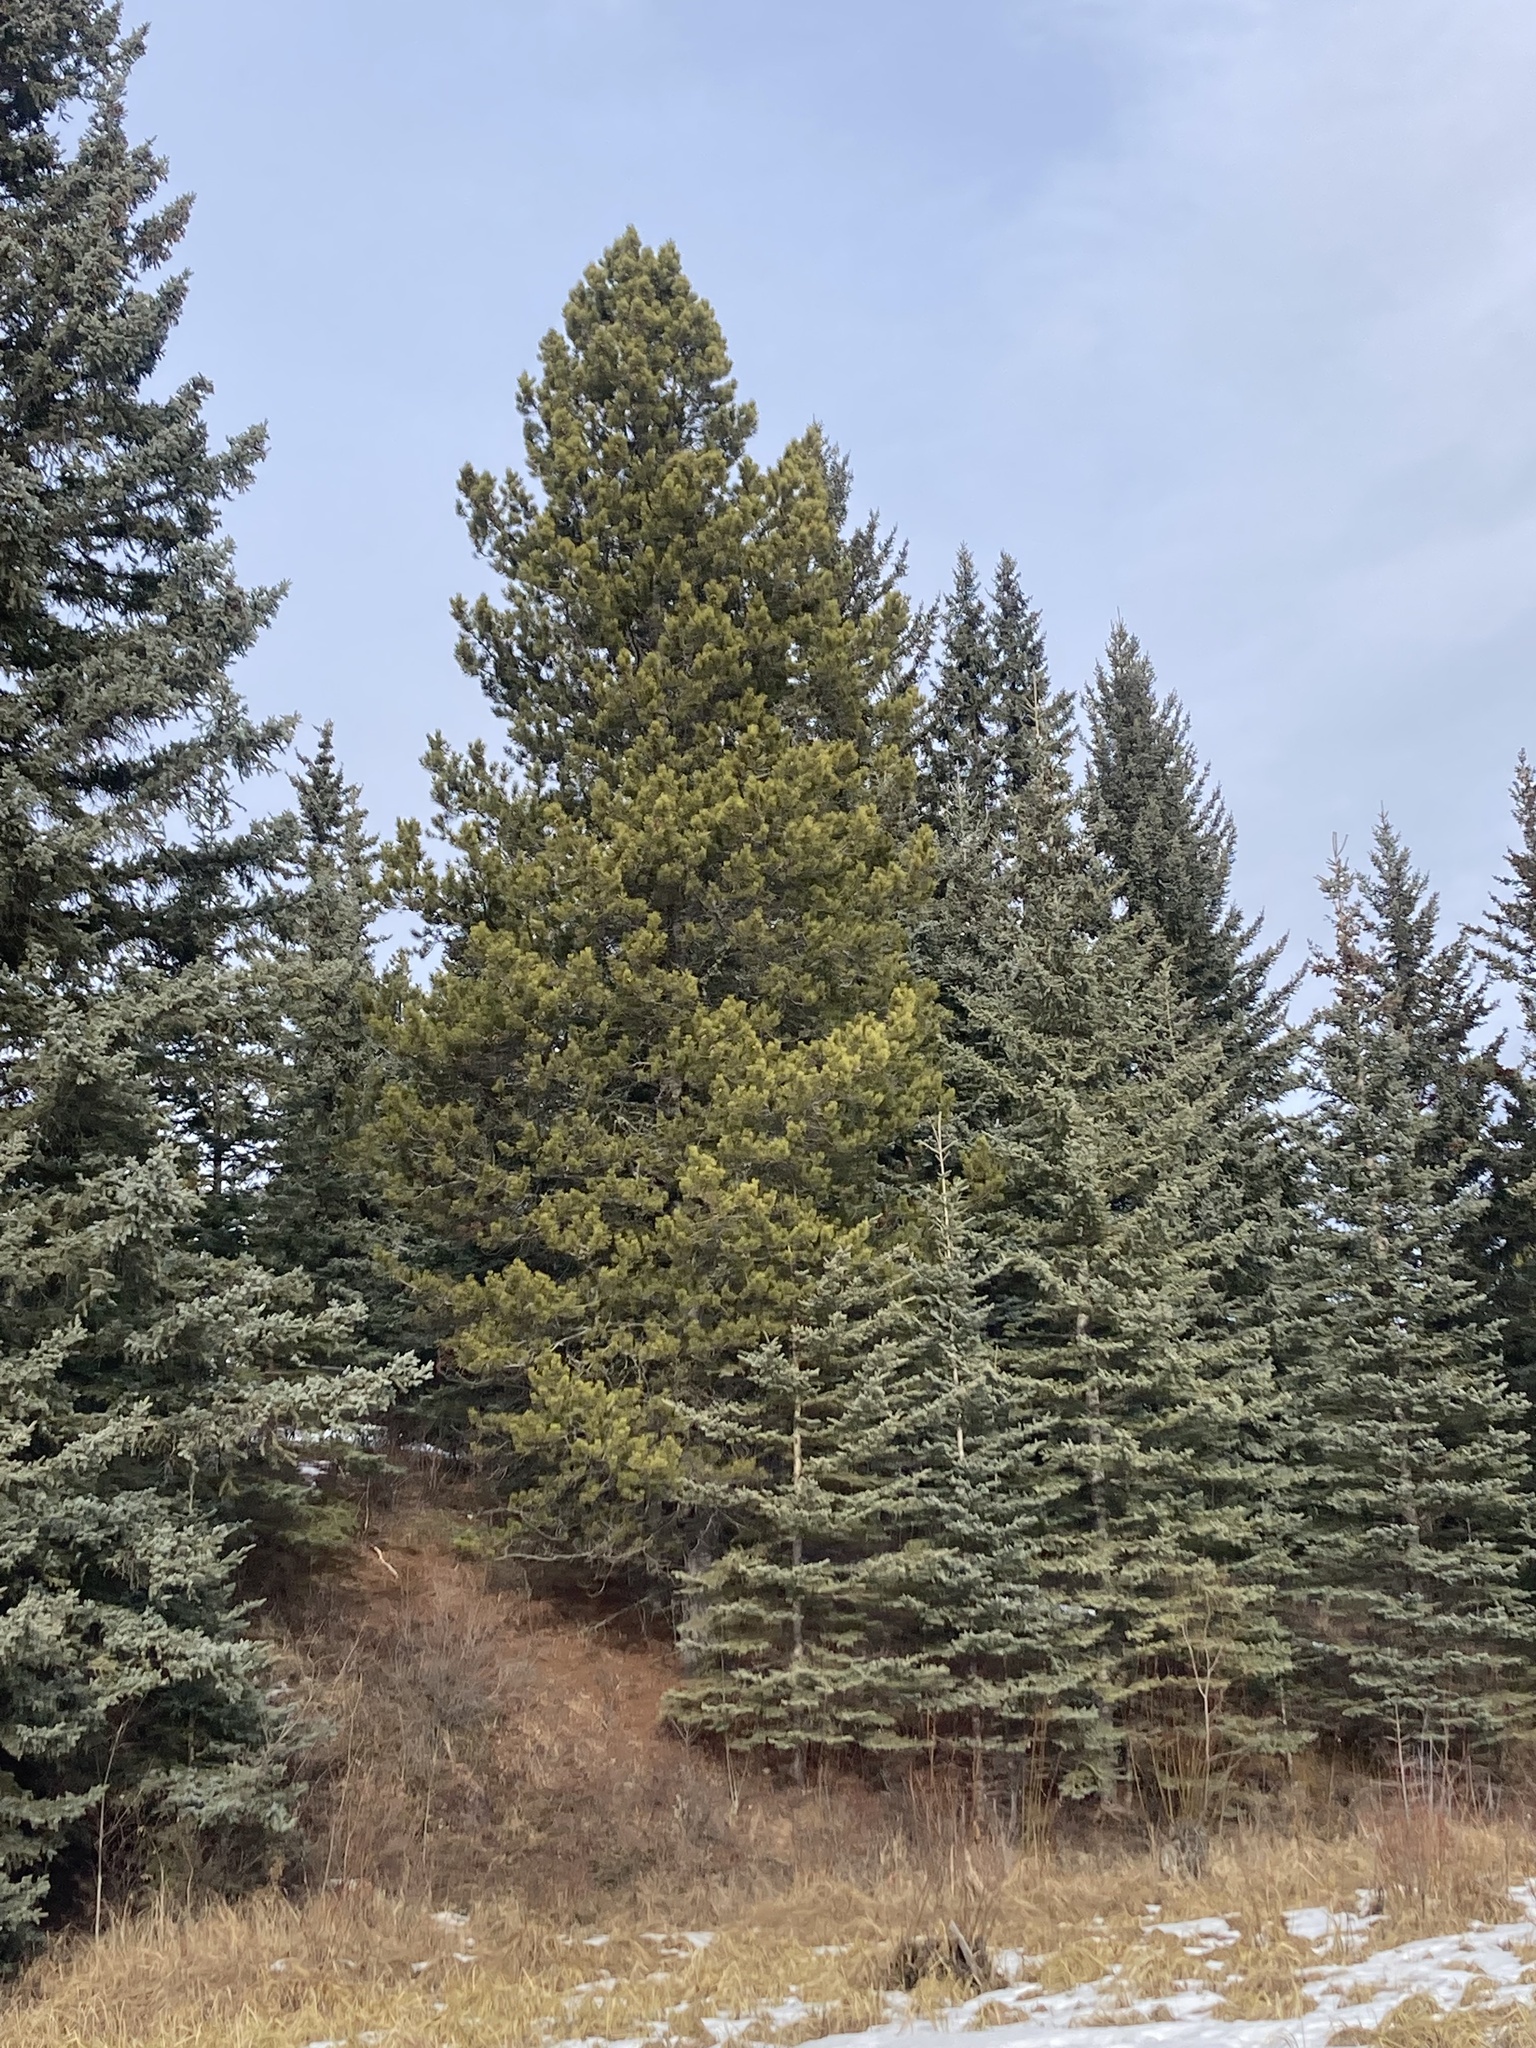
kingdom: Plantae
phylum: Tracheophyta
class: Pinopsida
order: Pinales
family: Pinaceae
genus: Pinus
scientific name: Pinus contorta
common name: Lodgepole pine
